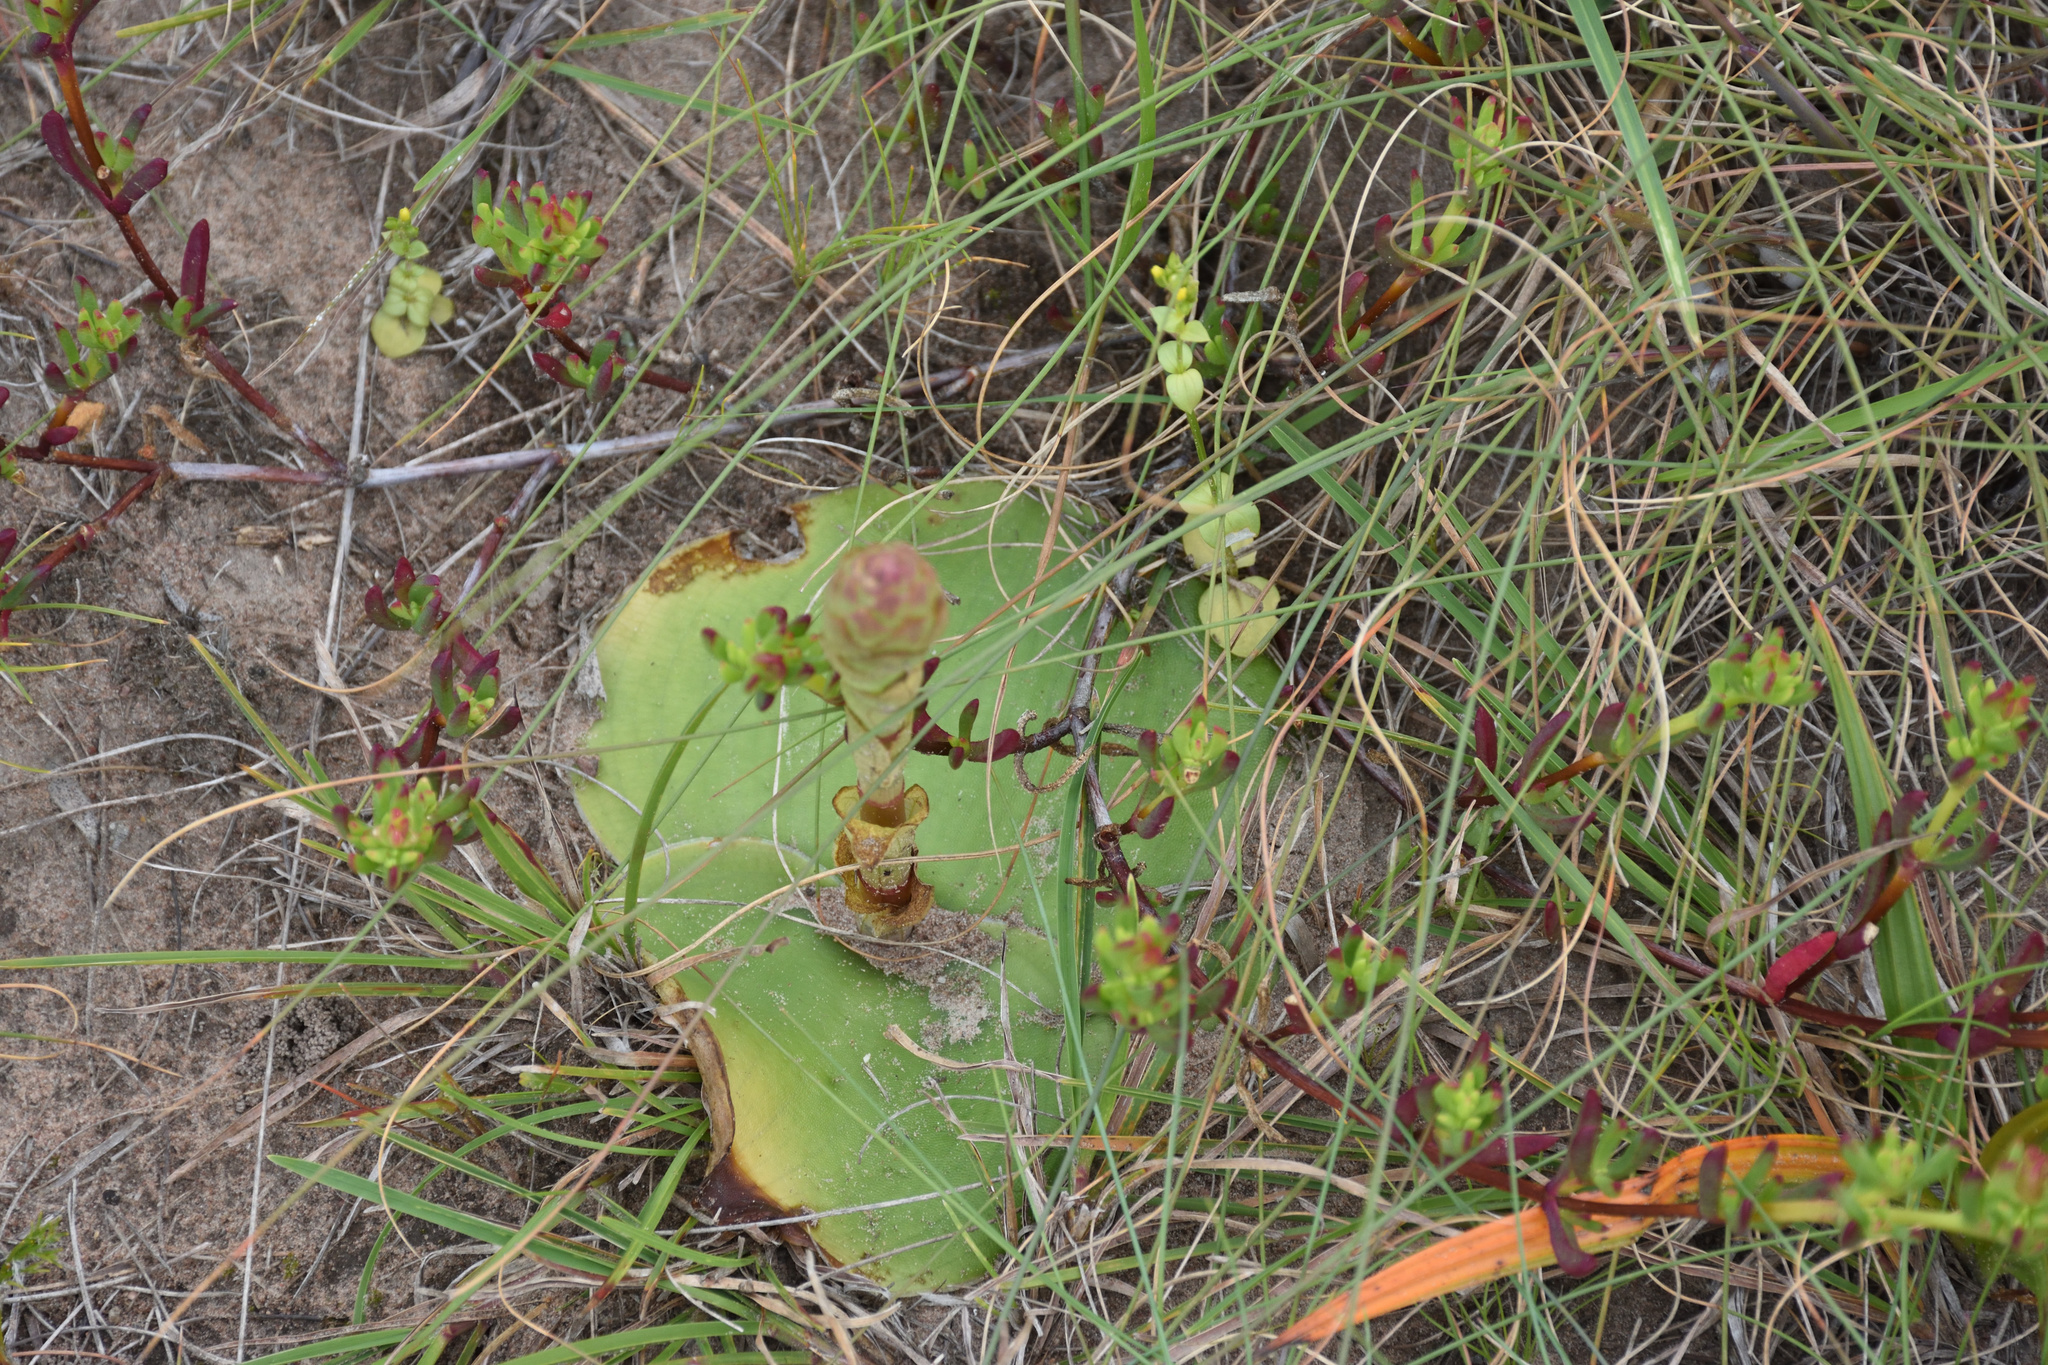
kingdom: Plantae
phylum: Tracheophyta
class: Liliopsida
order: Asparagales
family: Orchidaceae
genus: Satyrium
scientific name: Satyrium membranaceum
